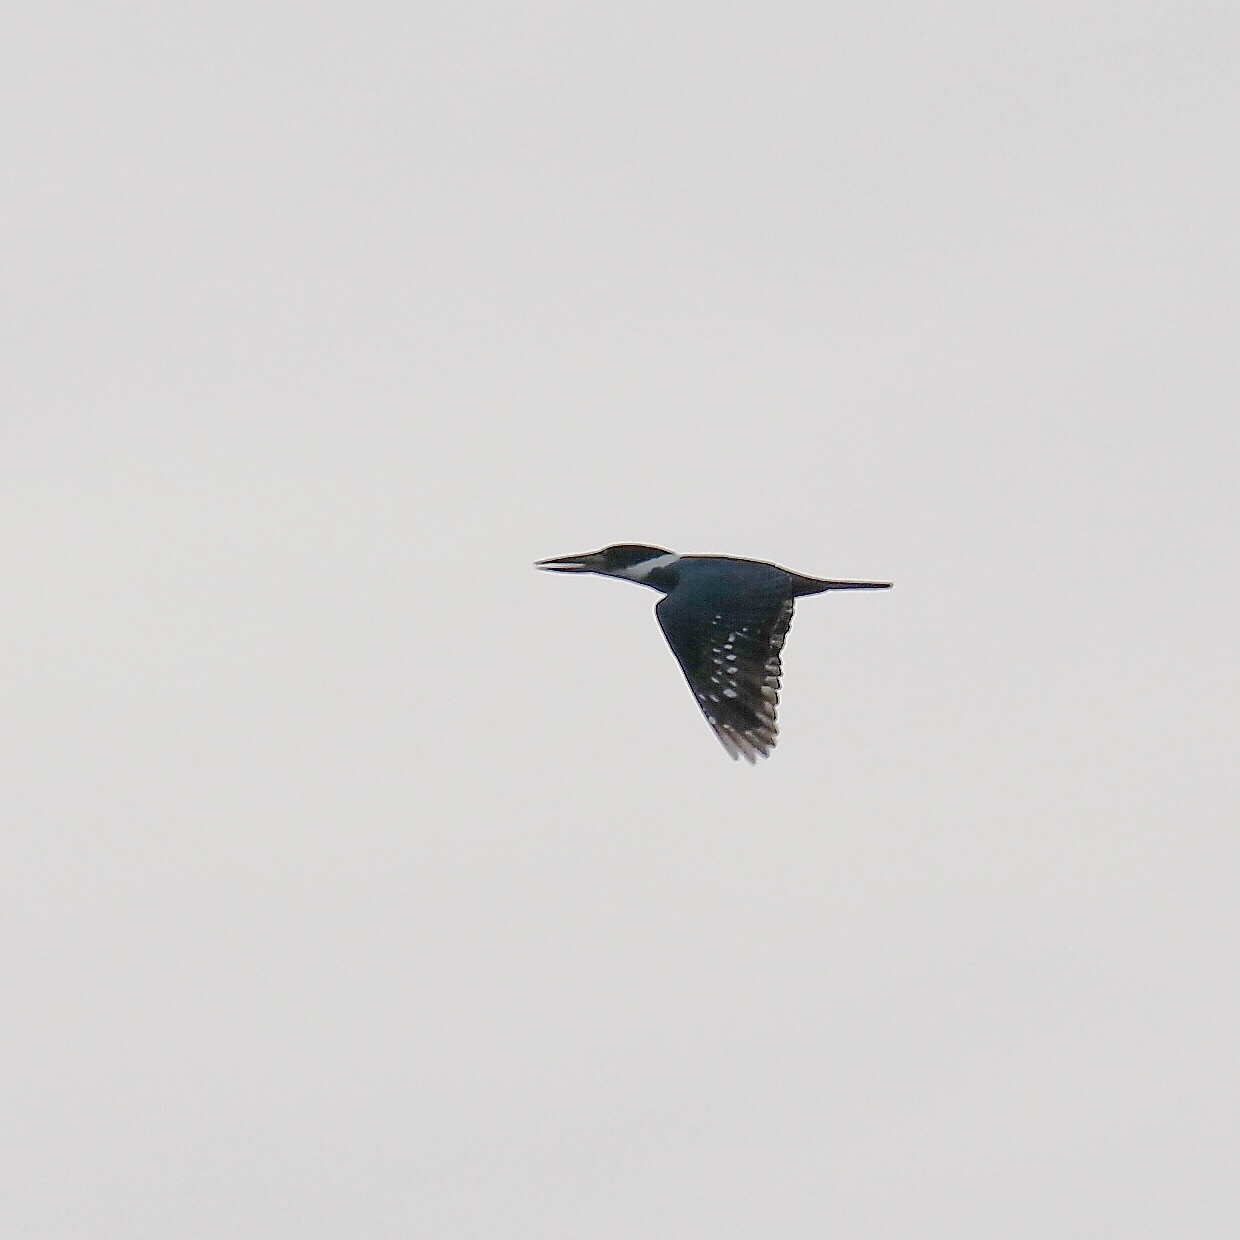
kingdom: Animalia
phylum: Chordata
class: Aves
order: Coraciiformes
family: Alcedinidae
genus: Megaceryle
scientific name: Megaceryle torquata
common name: Ringed kingfisher
